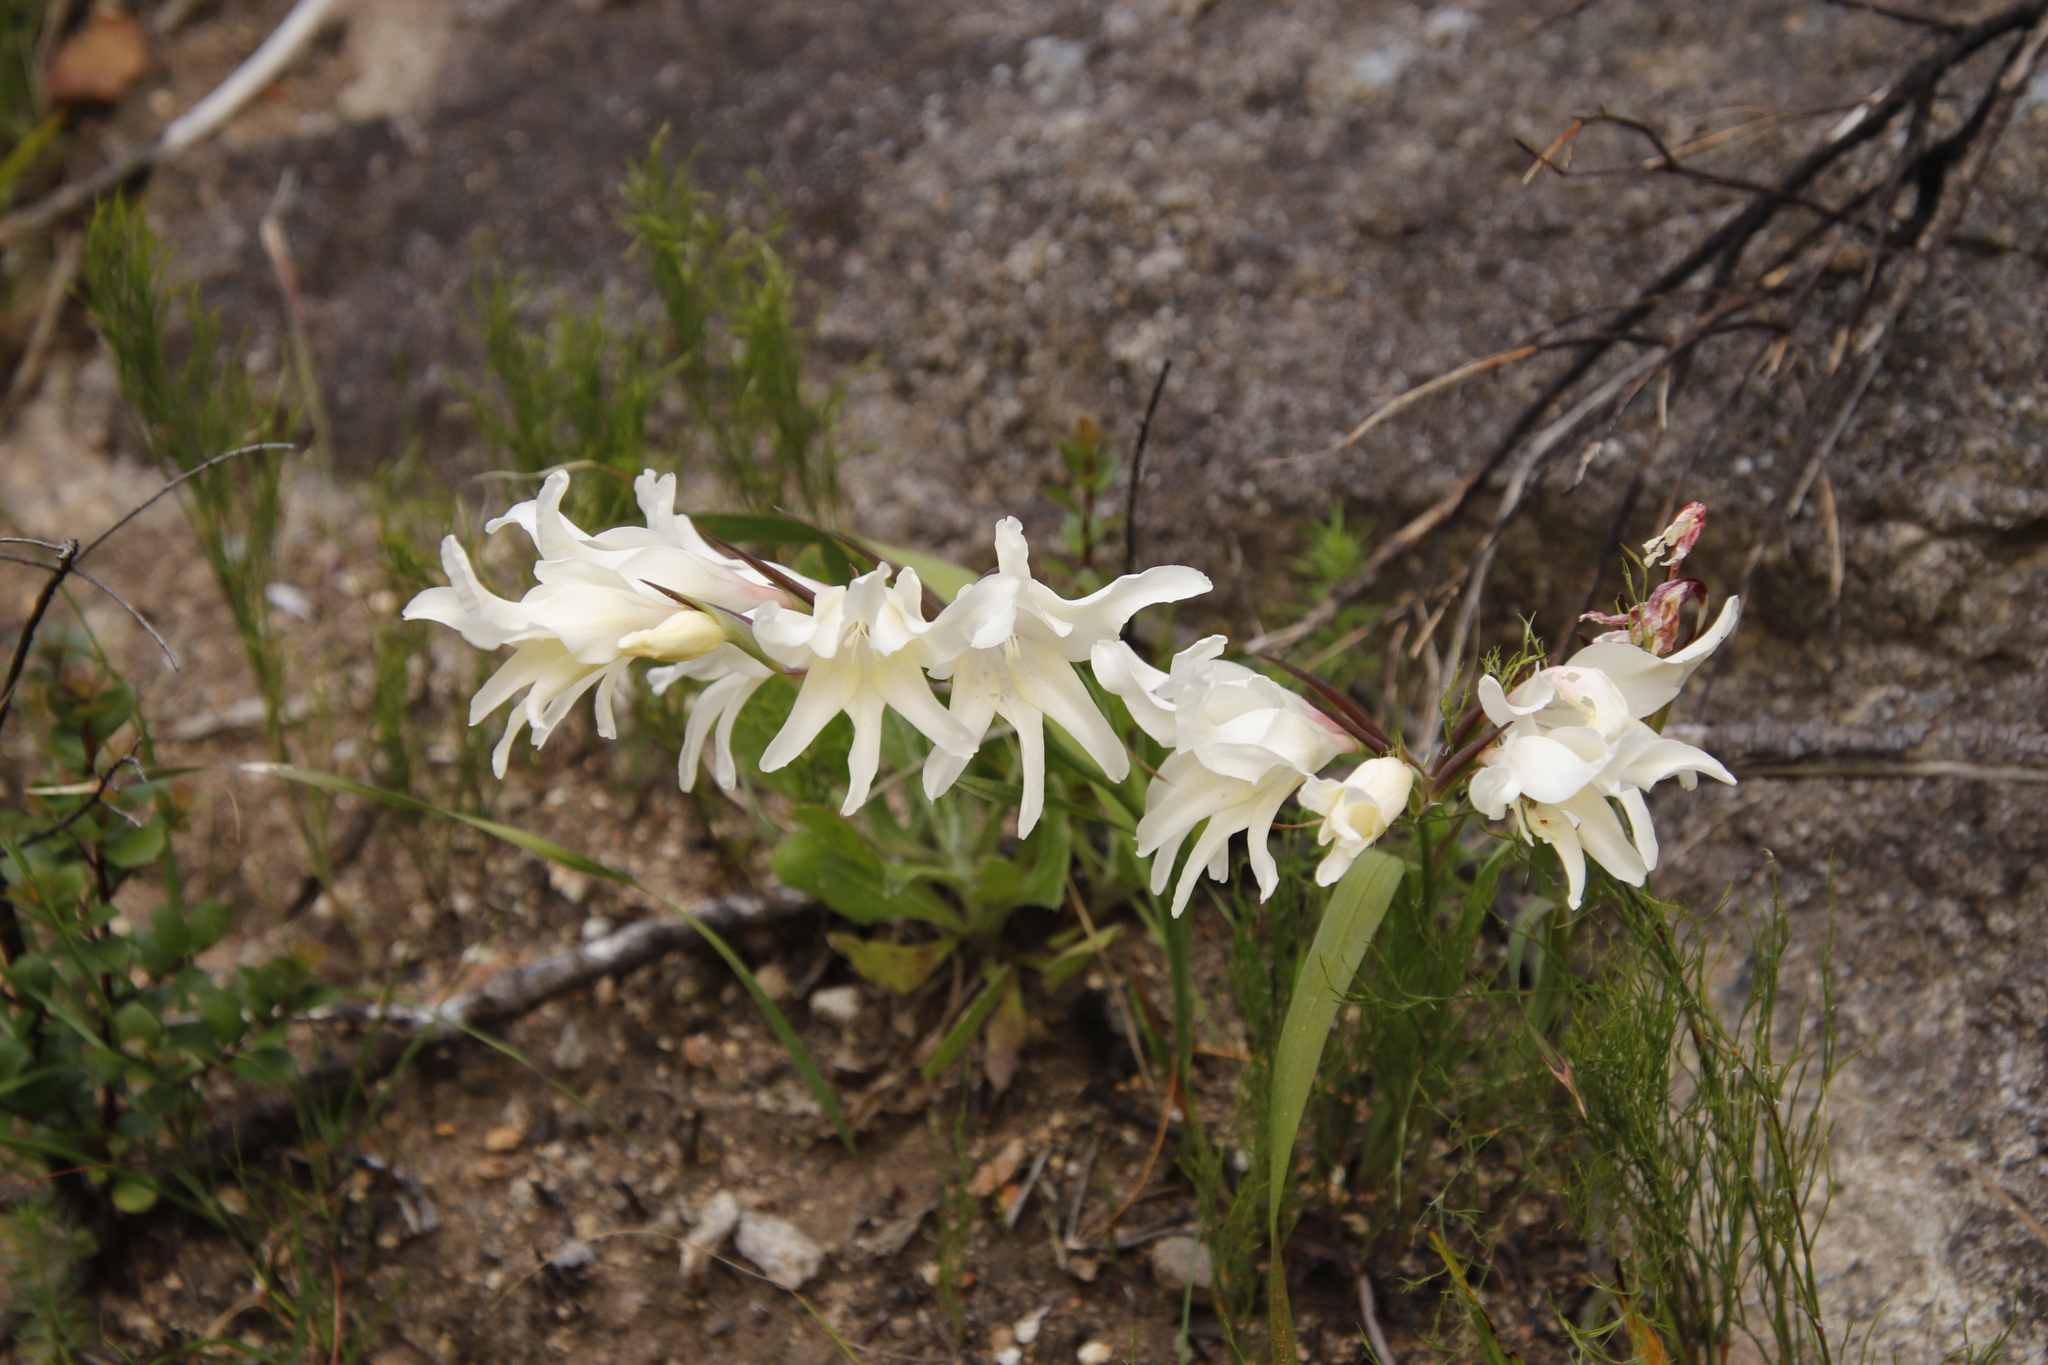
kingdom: Plantae
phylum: Tracheophyta
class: Liliopsida
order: Asparagales
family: Iridaceae
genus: Gladiolus
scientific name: Gladiolus undulatus
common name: Large painted-lady
